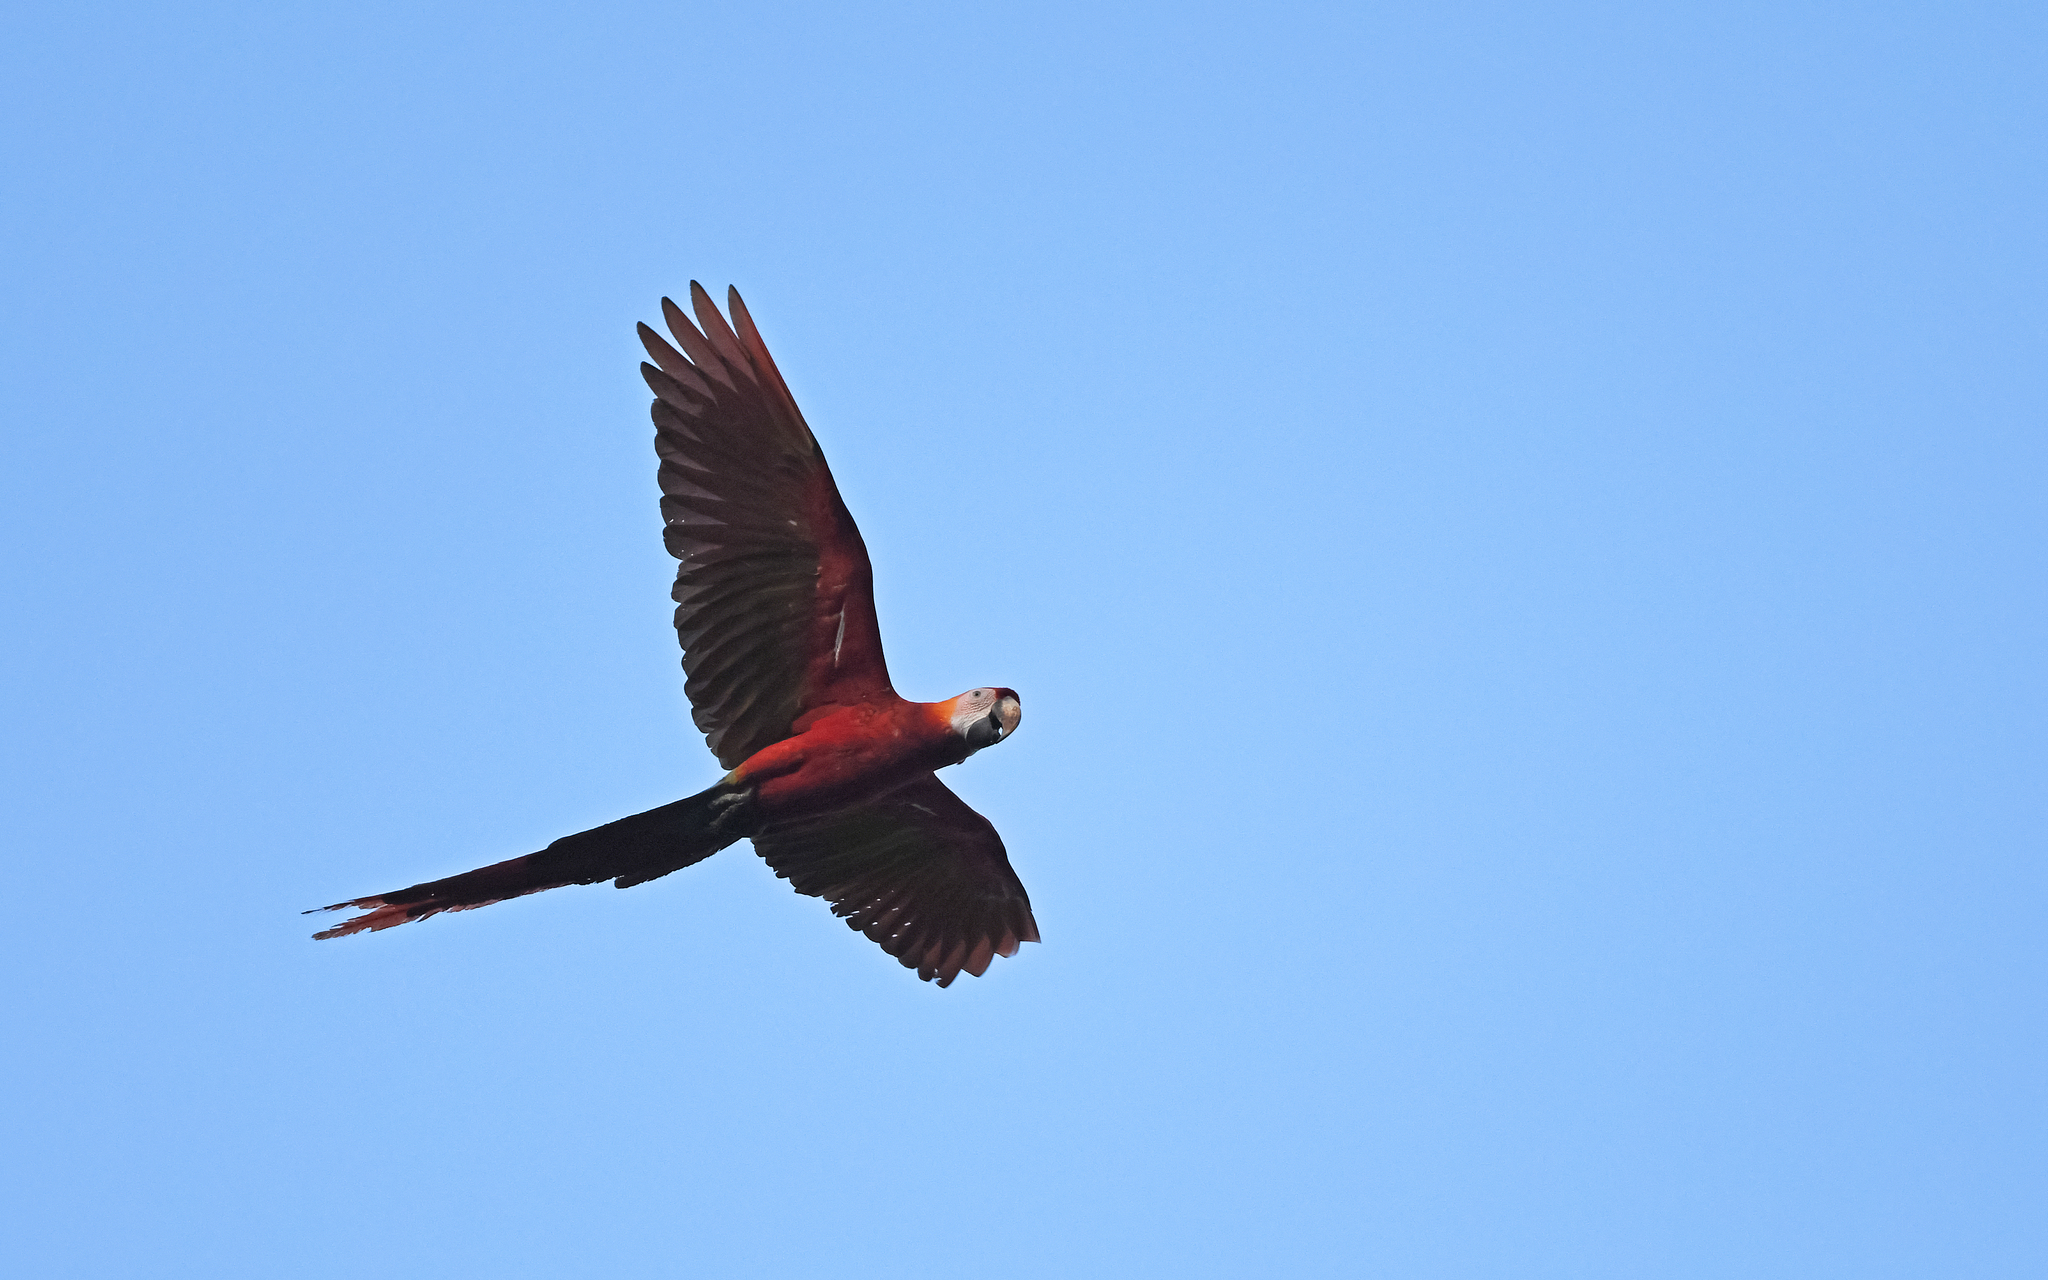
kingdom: Animalia
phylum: Chordata
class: Aves
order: Psittaciformes
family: Psittacidae
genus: Ara
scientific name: Ara macao
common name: Scarlet macaw
